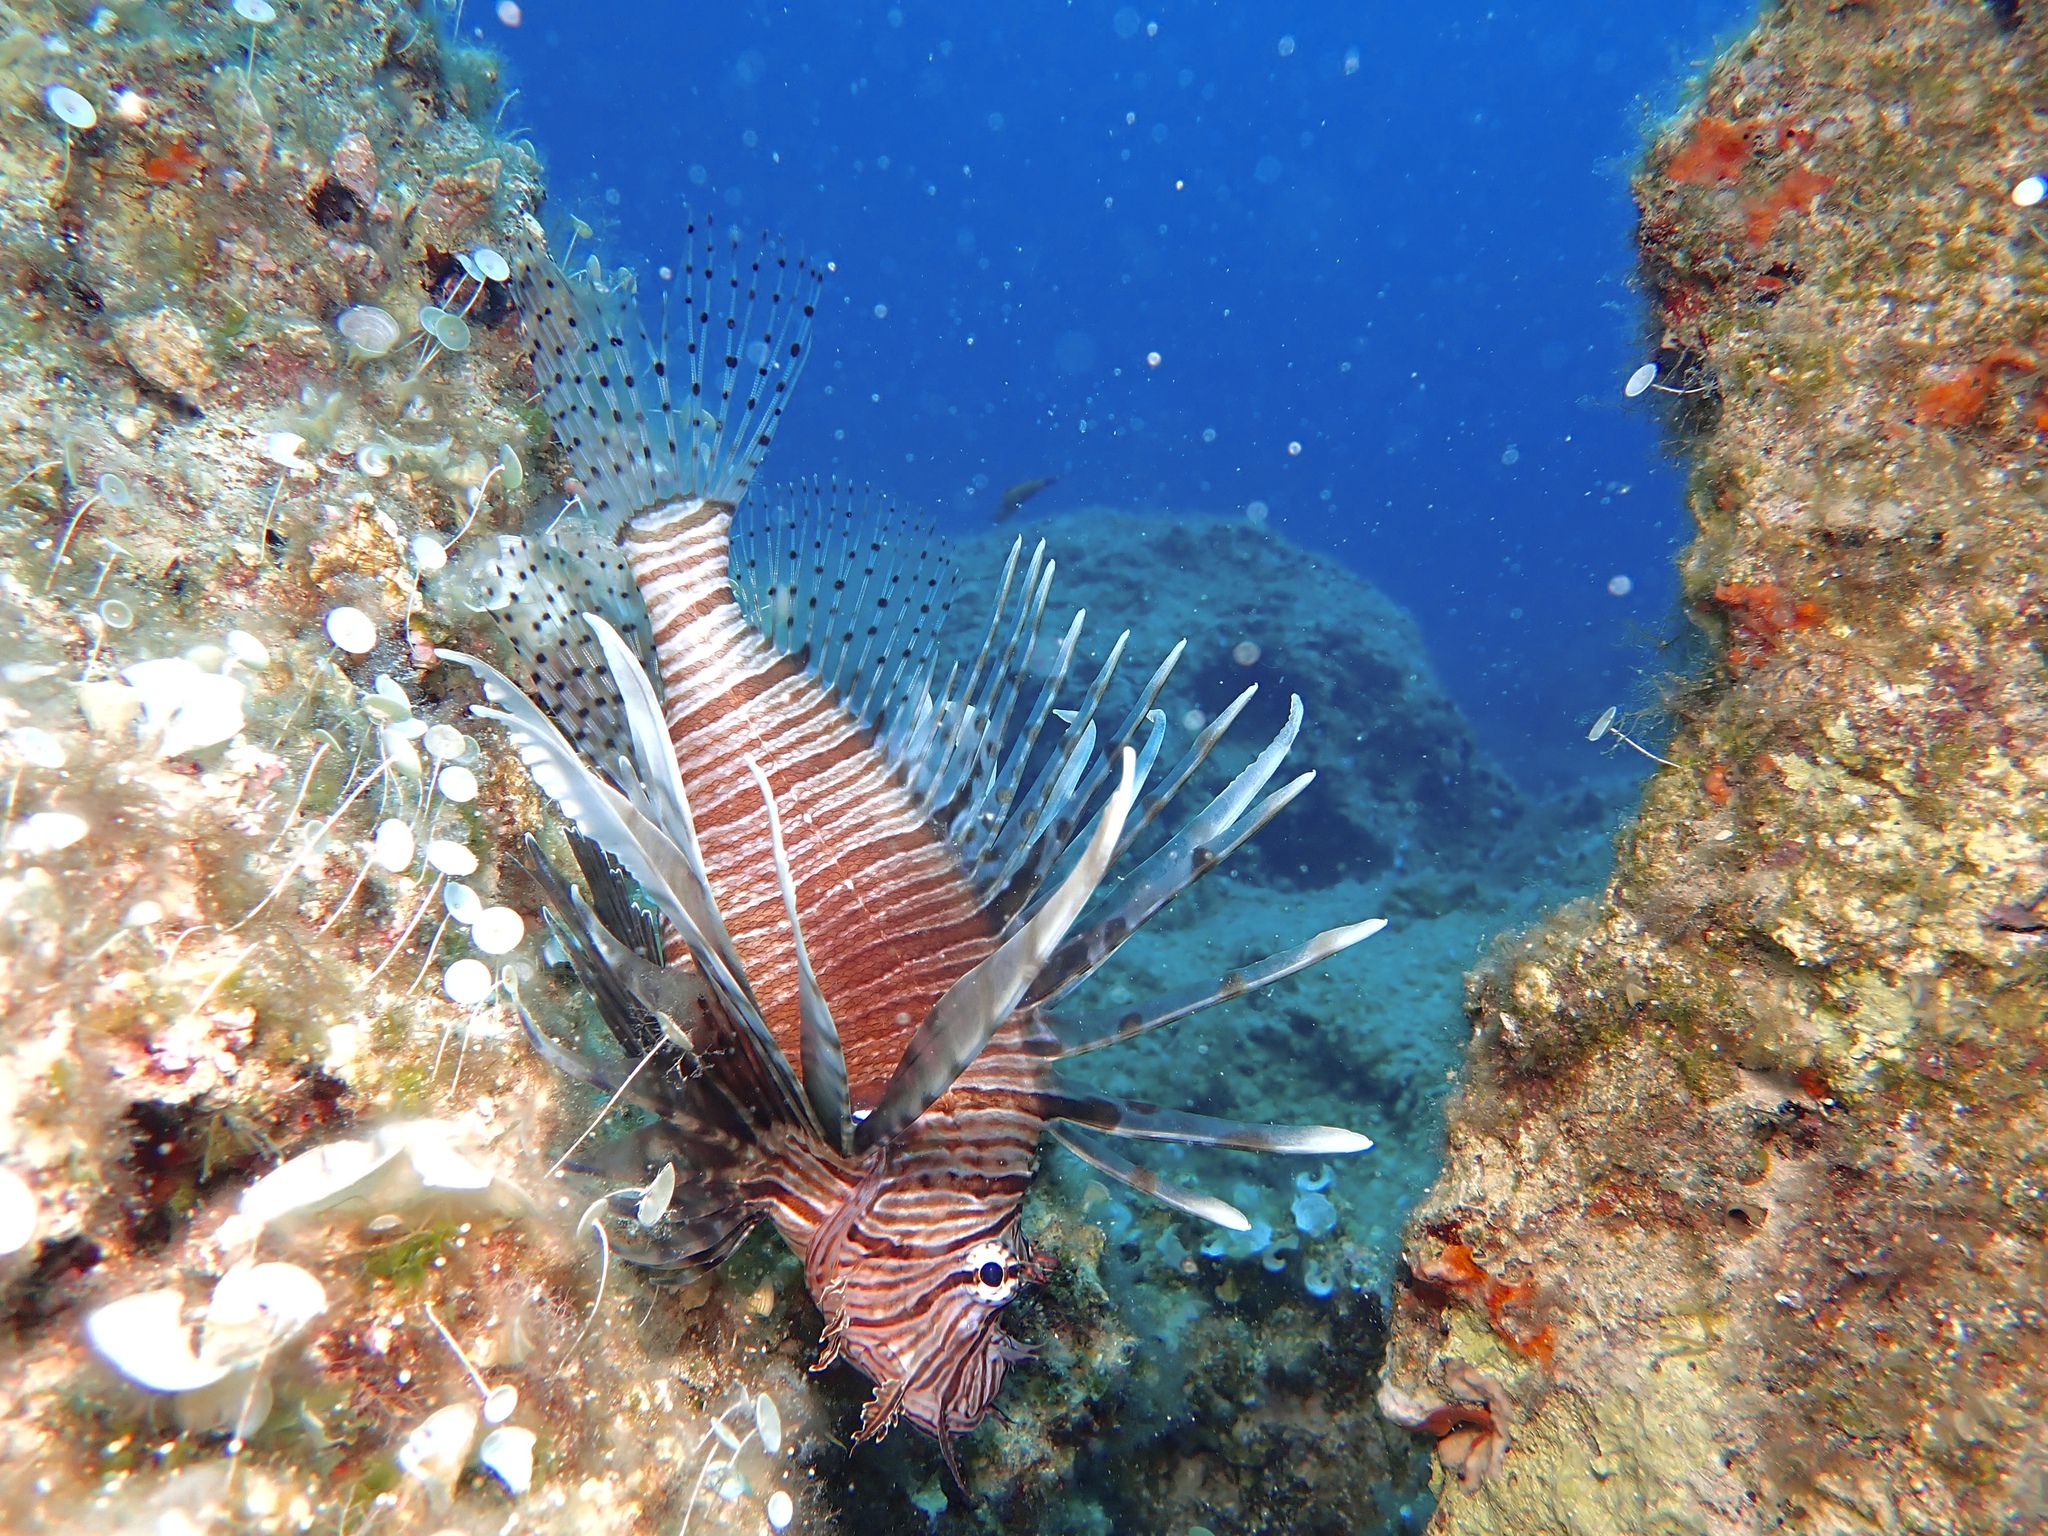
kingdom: Animalia
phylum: Chordata
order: Scorpaeniformes
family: Scorpaenidae
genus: Pterois
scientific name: Pterois miles
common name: Devil firefish
